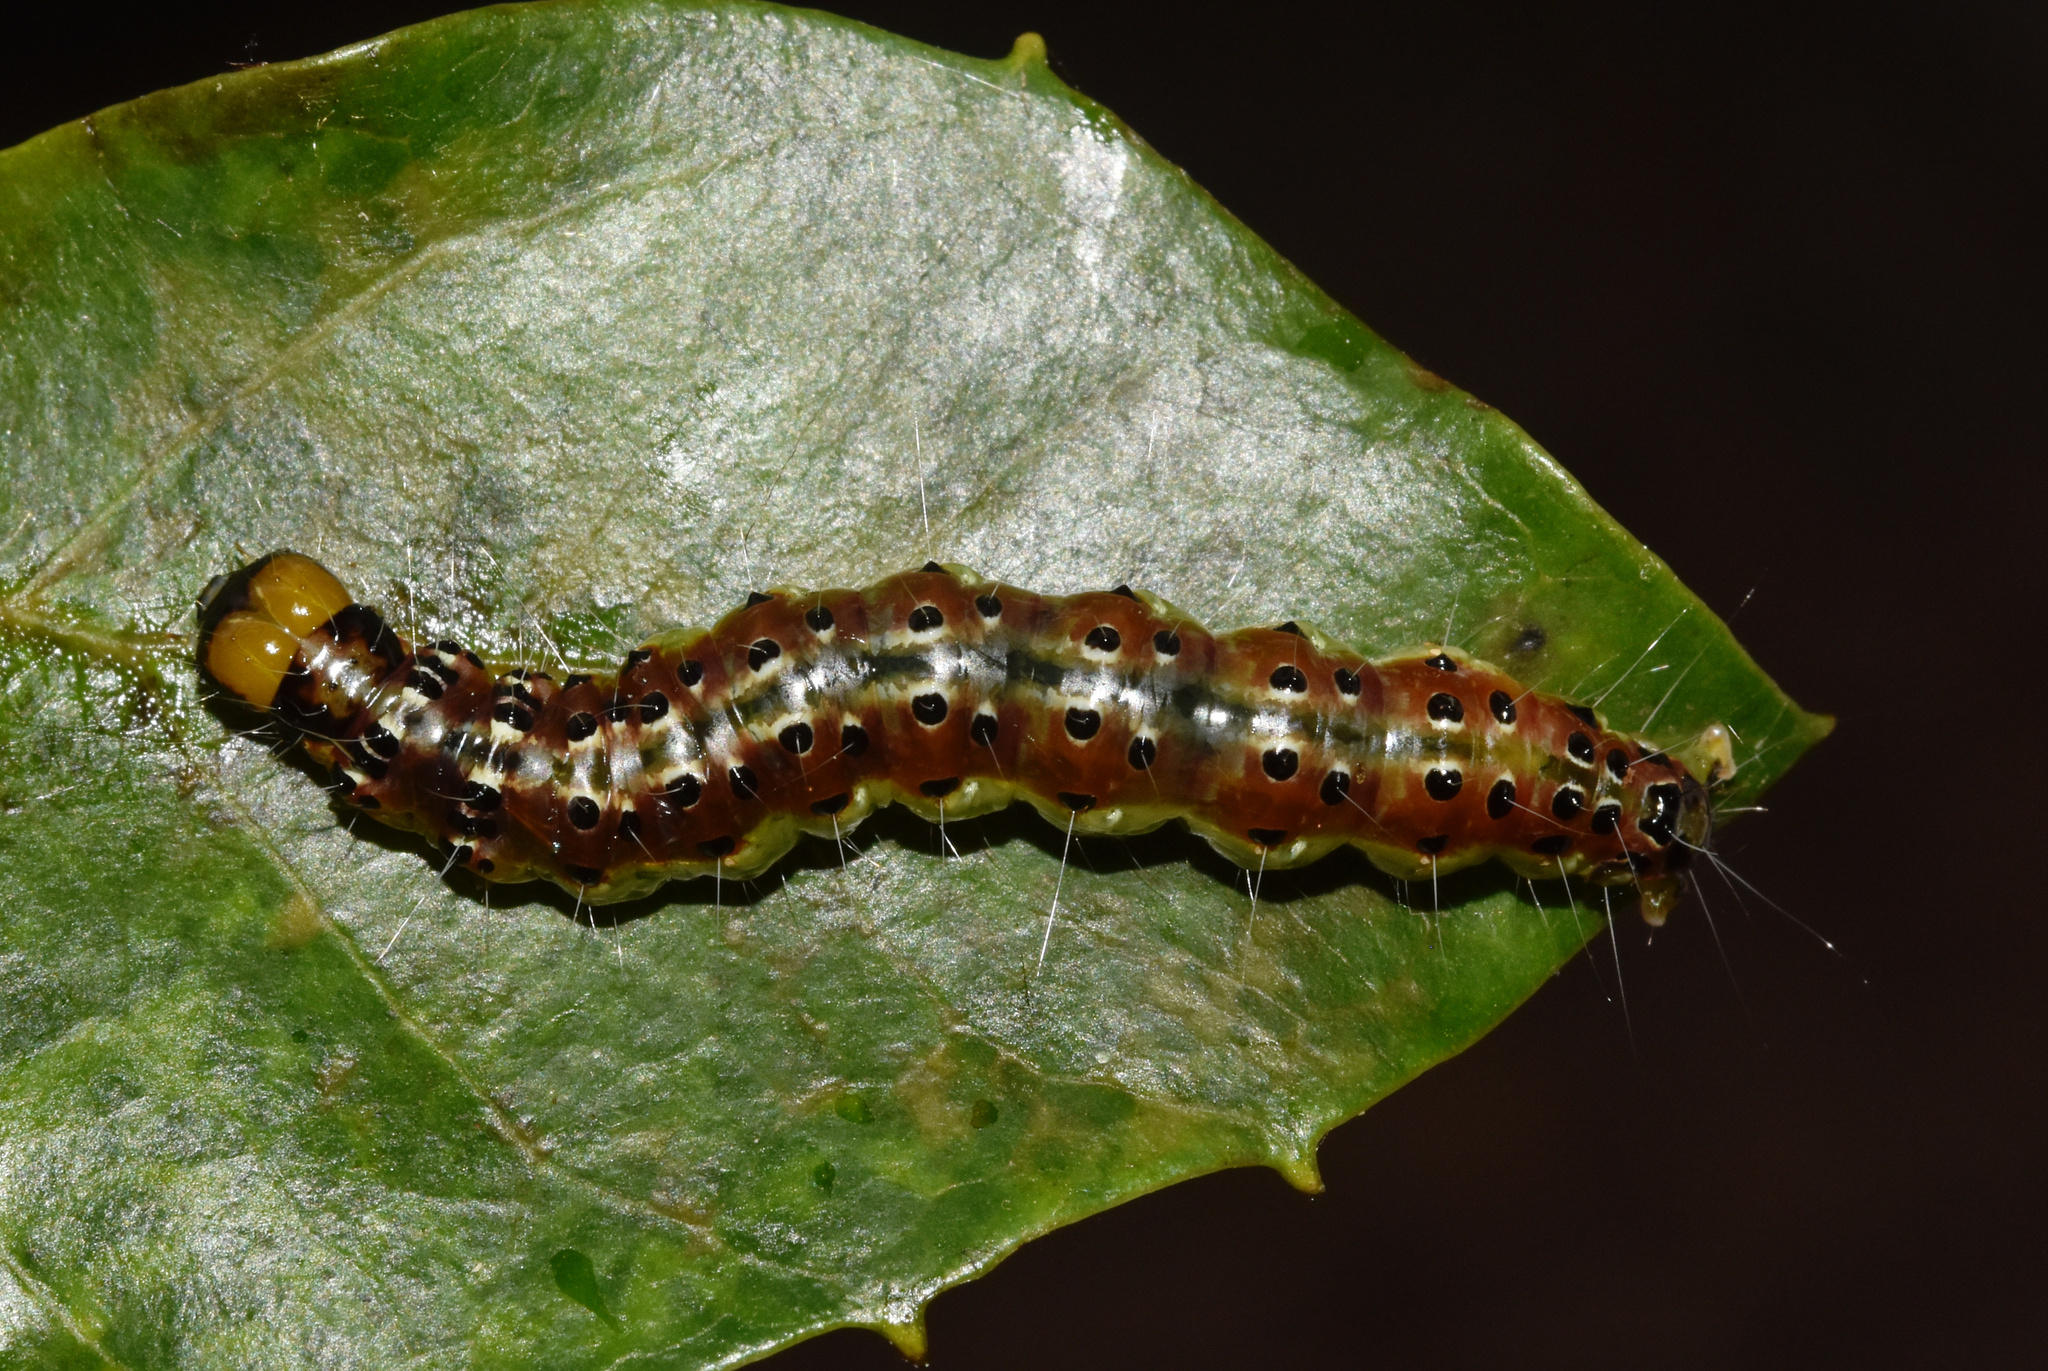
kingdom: Animalia
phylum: Arthropoda
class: Insecta
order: Lepidoptera
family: Crambidae
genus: Botyodes
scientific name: Botyodes asialis
